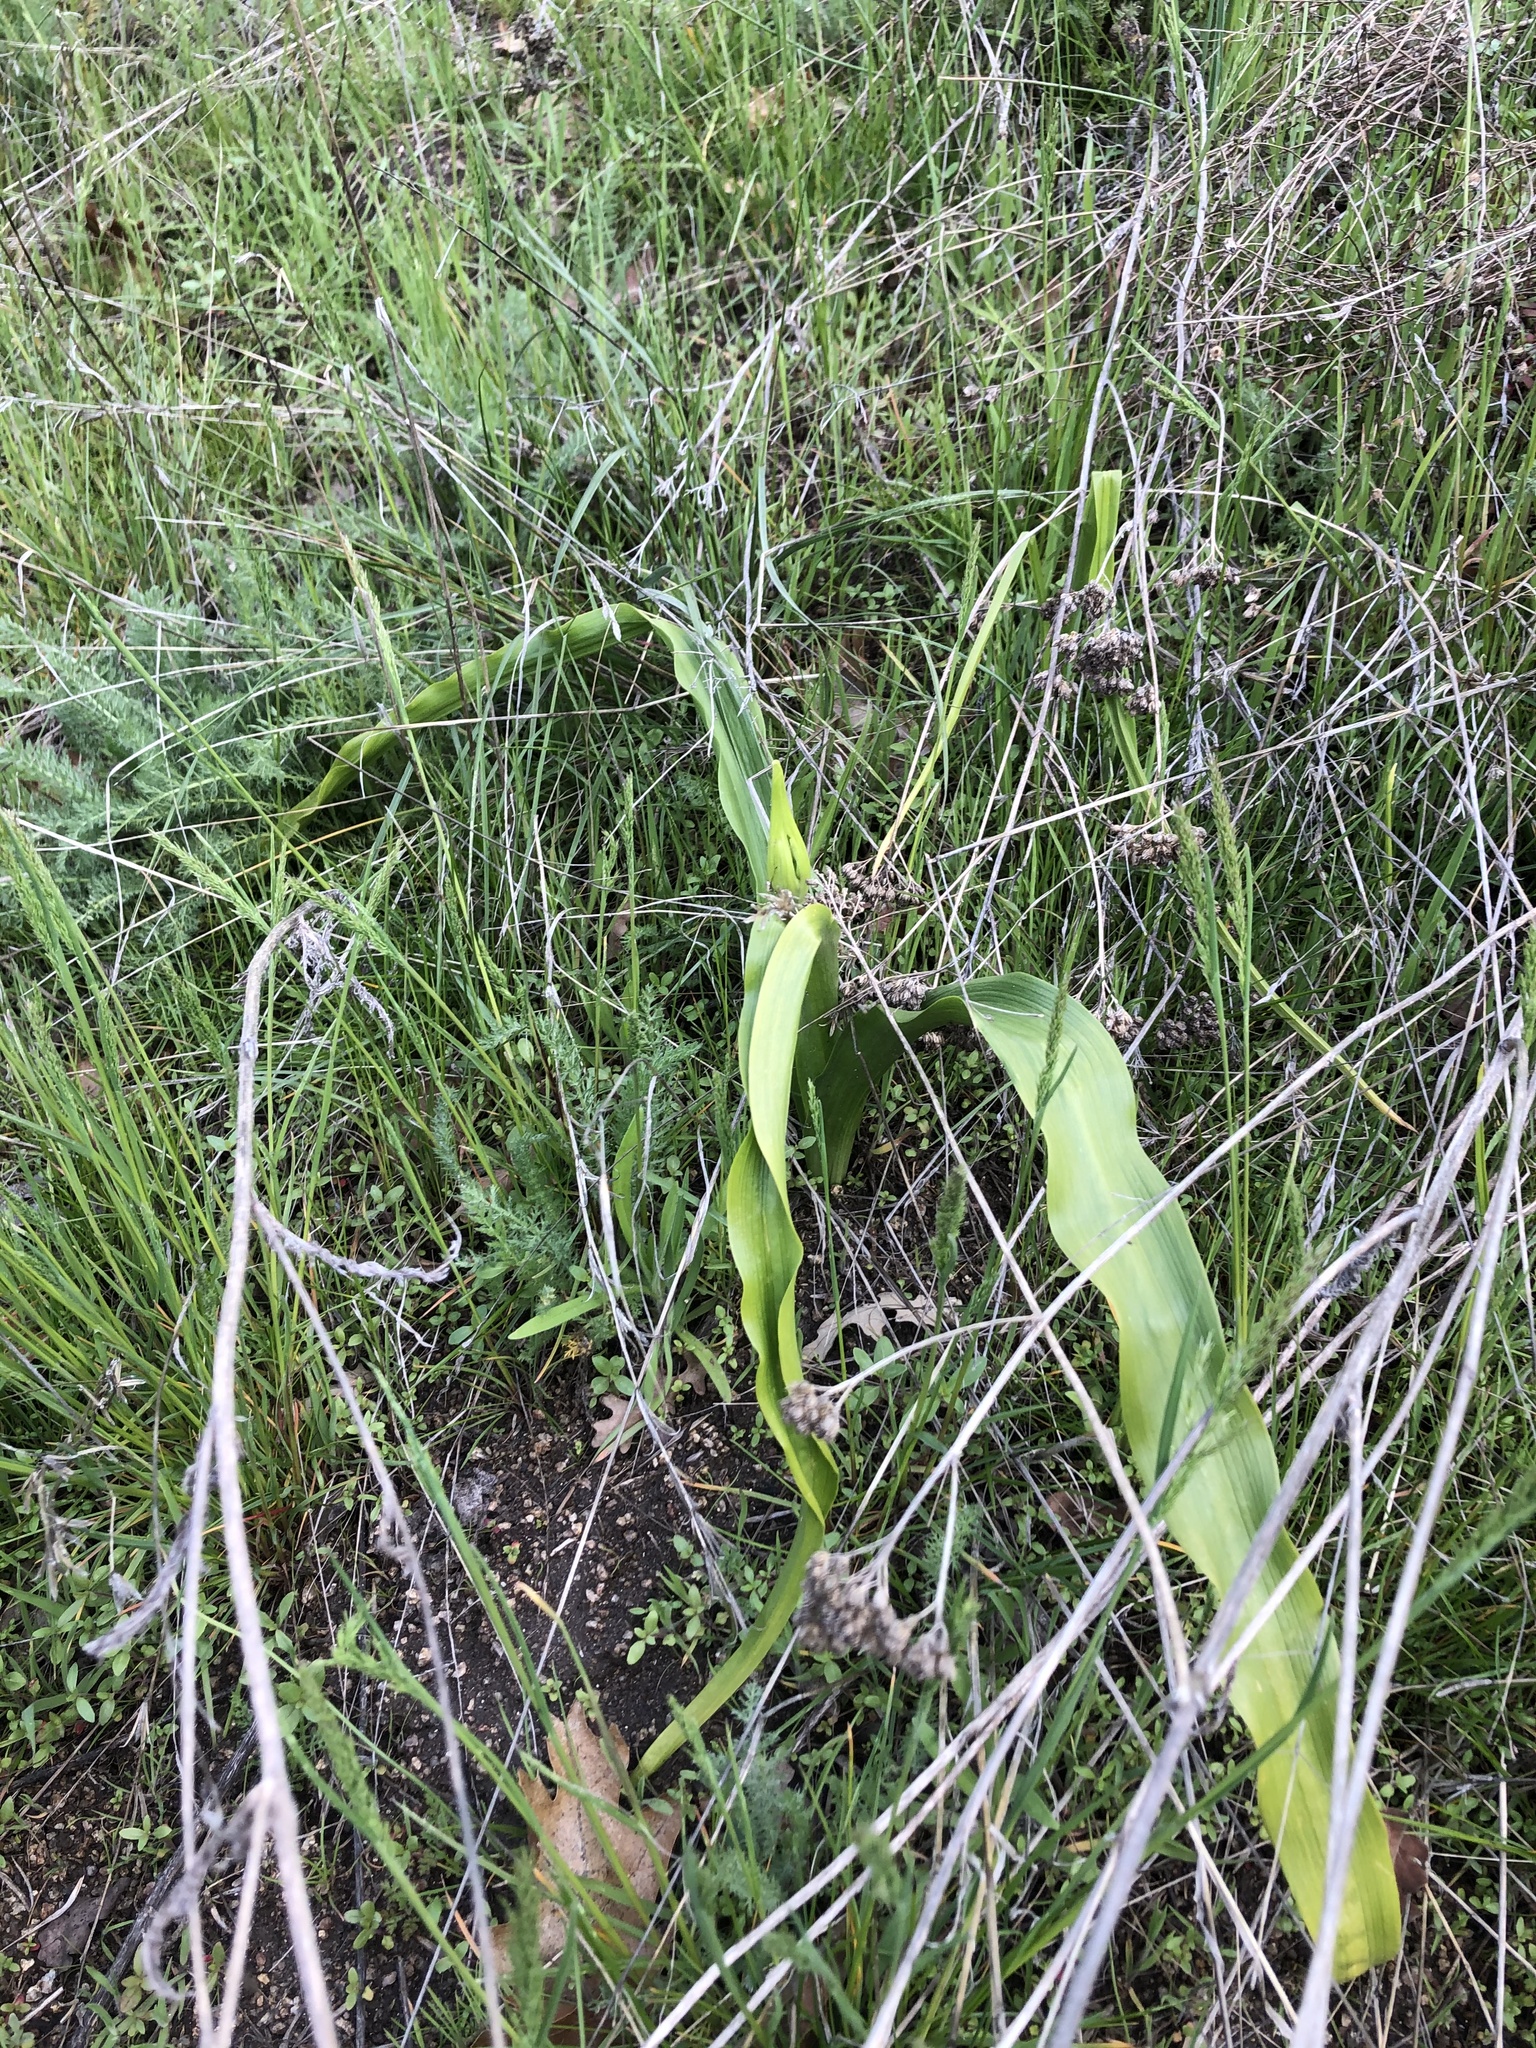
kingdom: Plantae
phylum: Tracheophyta
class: Liliopsida
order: Asparagales
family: Asparagaceae
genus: Chlorogalum
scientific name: Chlorogalum pomeridianum
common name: Amole
